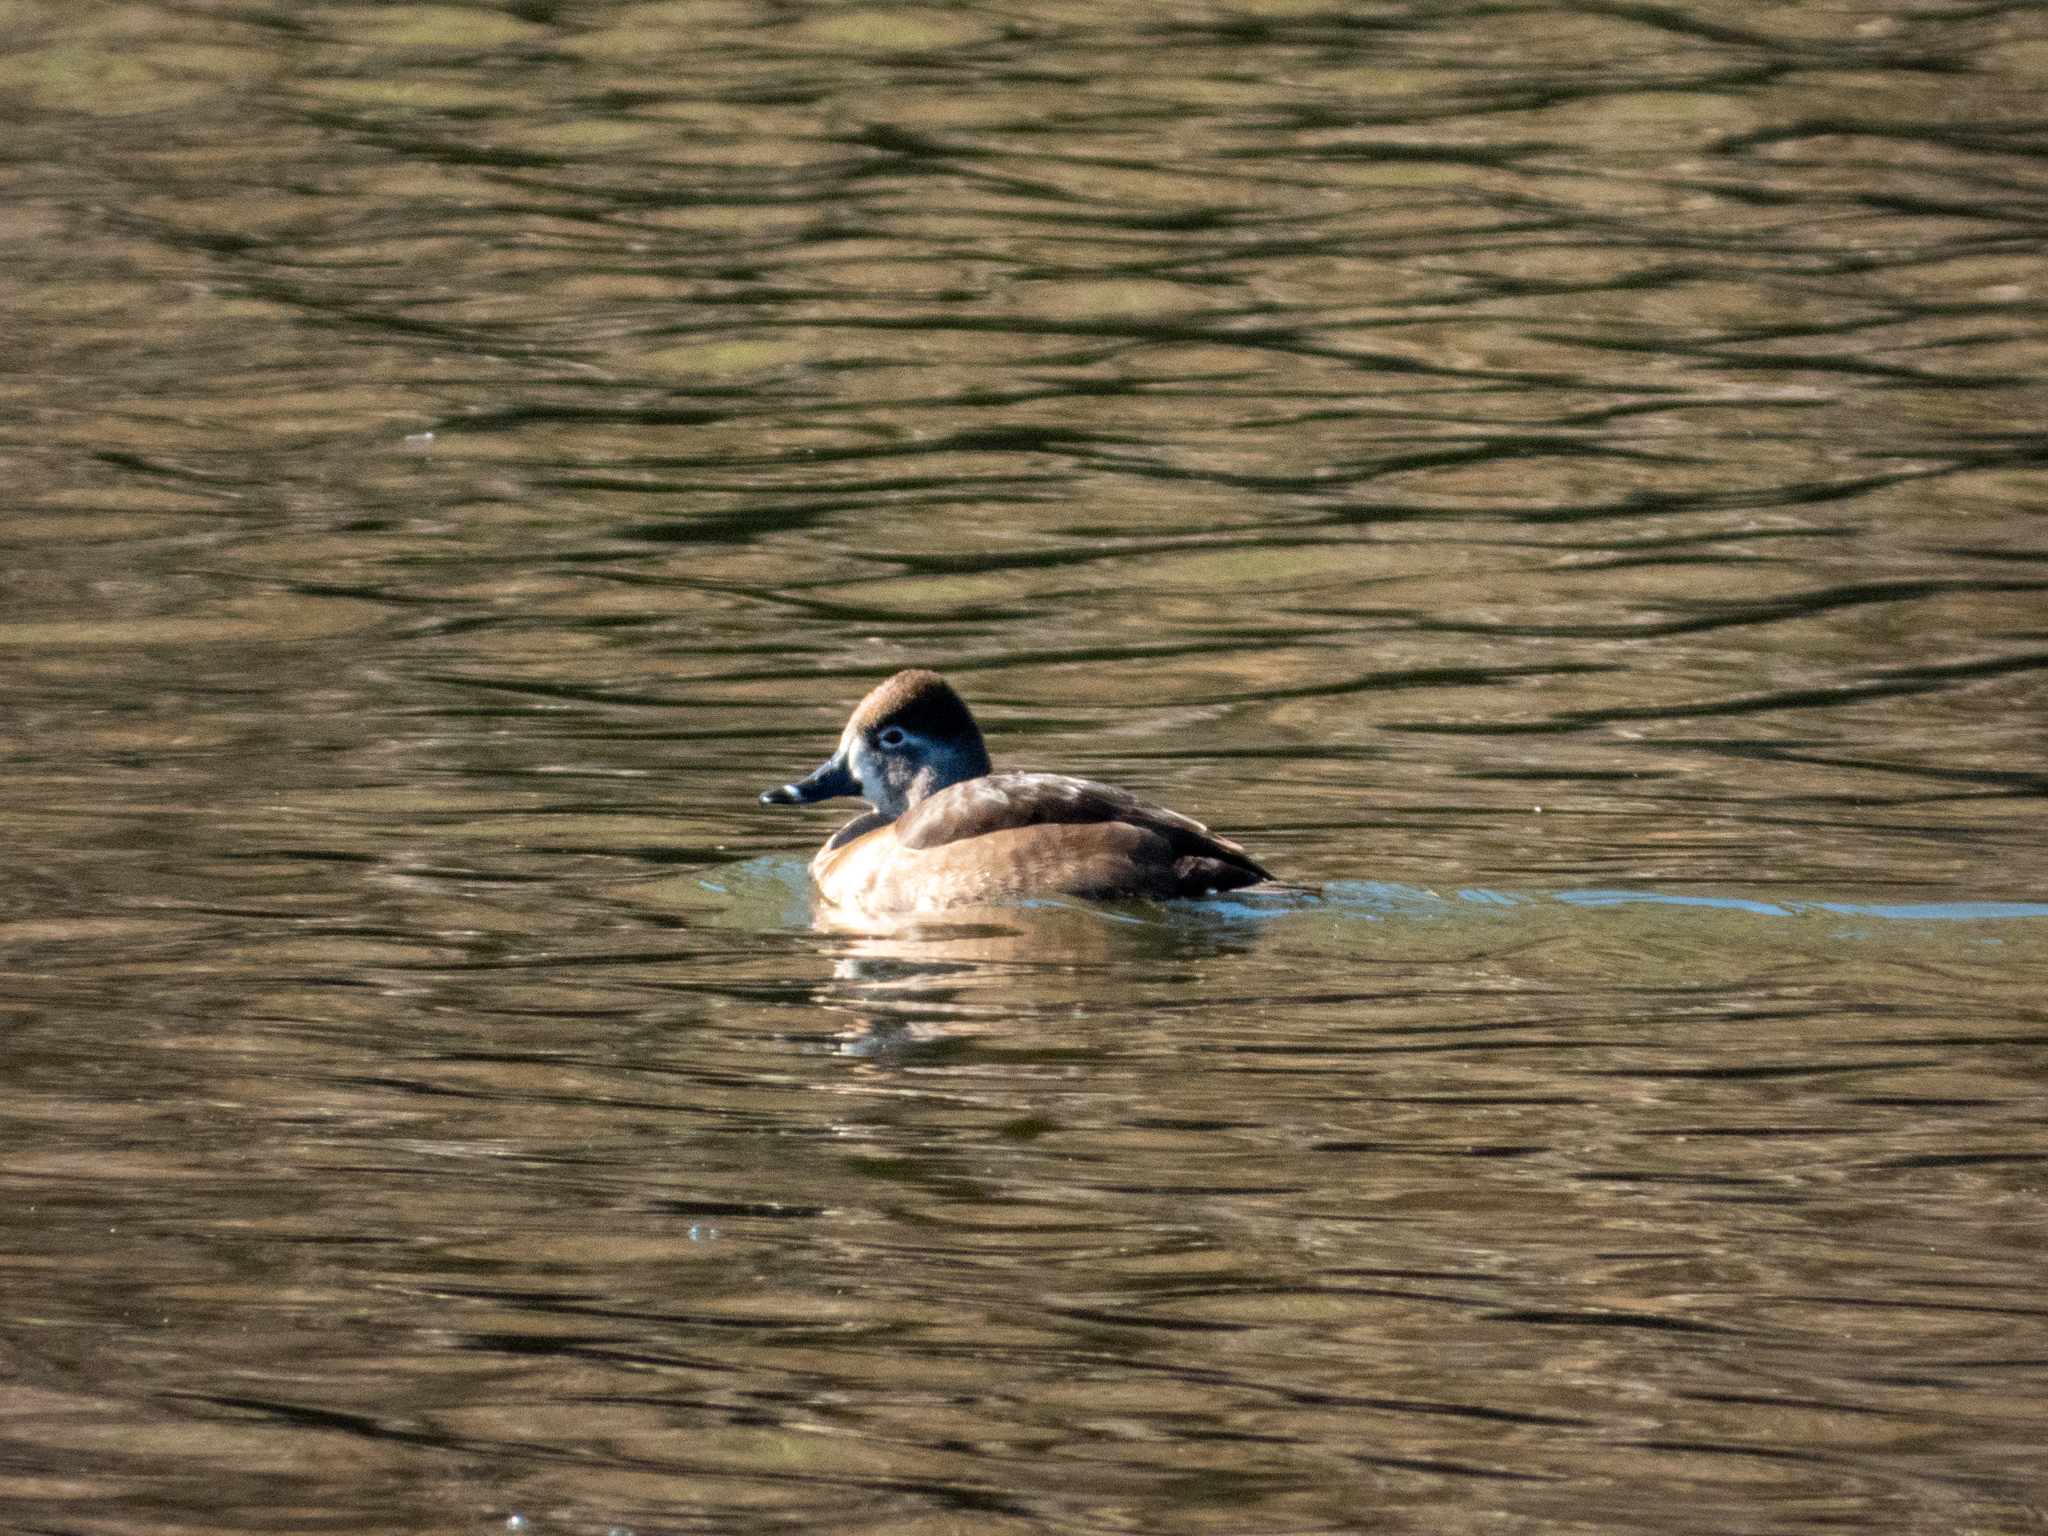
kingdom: Animalia
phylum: Chordata
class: Aves
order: Anseriformes
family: Anatidae
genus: Aythya
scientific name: Aythya collaris
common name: Ring-necked duck
